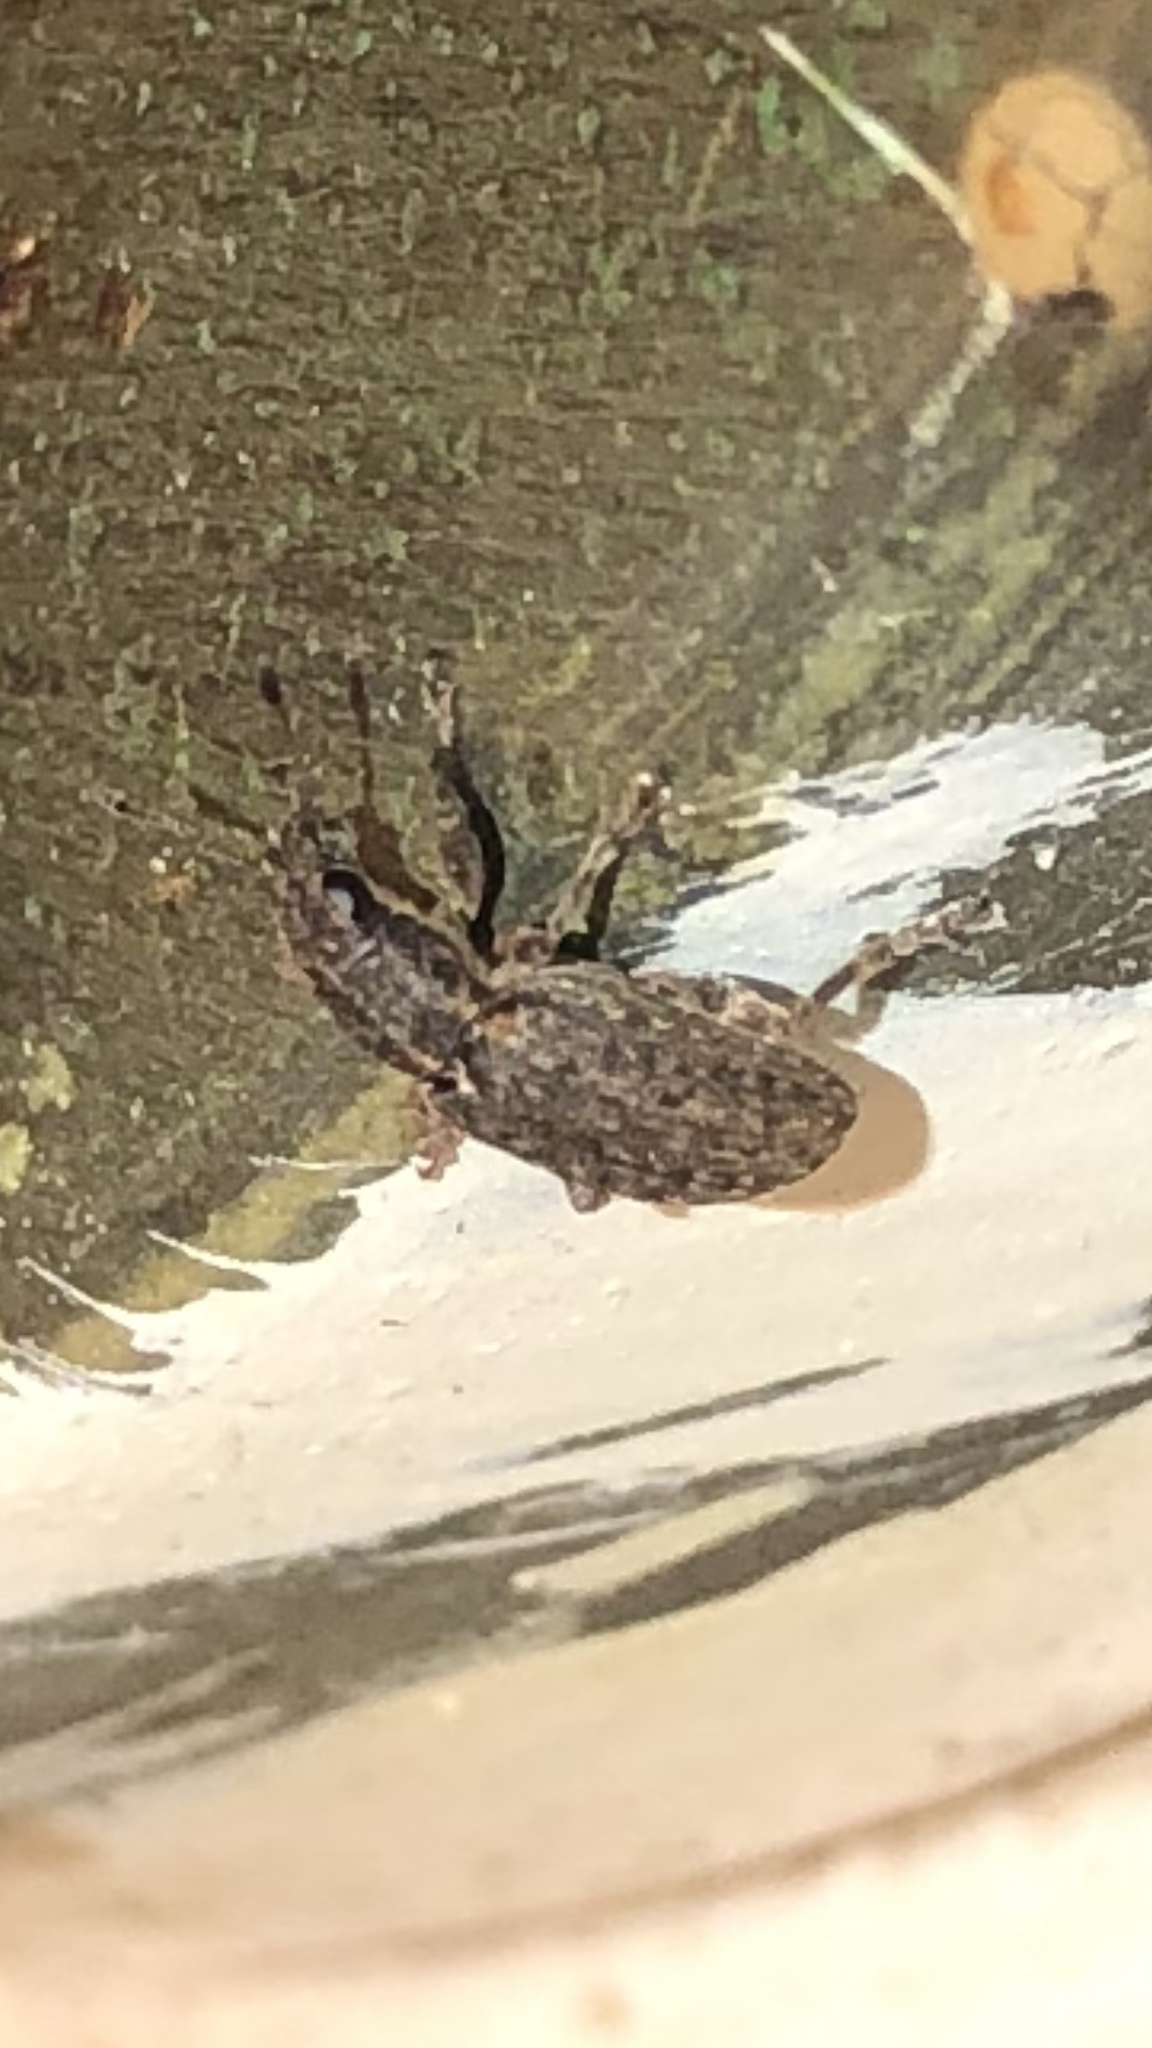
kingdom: Animalia
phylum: Arthropoda
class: Insecta
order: Coleoptera
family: Curculionidae
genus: Sitona
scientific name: Sitona cylindricollis
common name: Weevil
